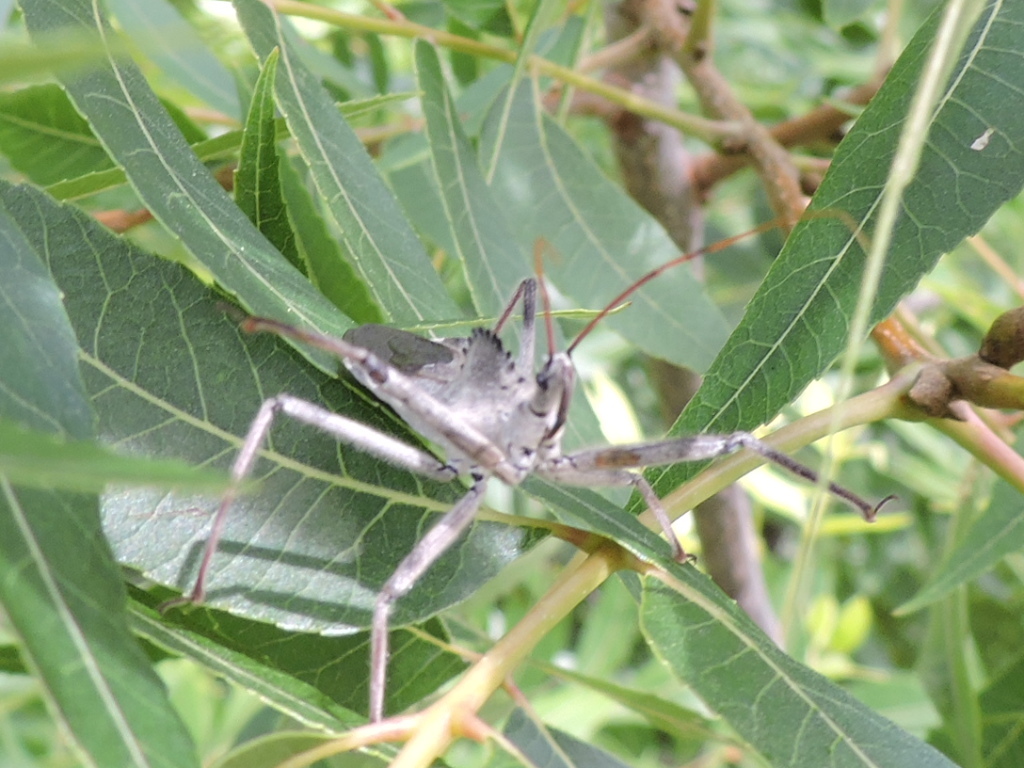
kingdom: Animalia
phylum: Arthropoda
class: Insecta
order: Hemiptera
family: Reduviidae
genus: Arilus
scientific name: Arilus cristatus
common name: North american wheel bug
